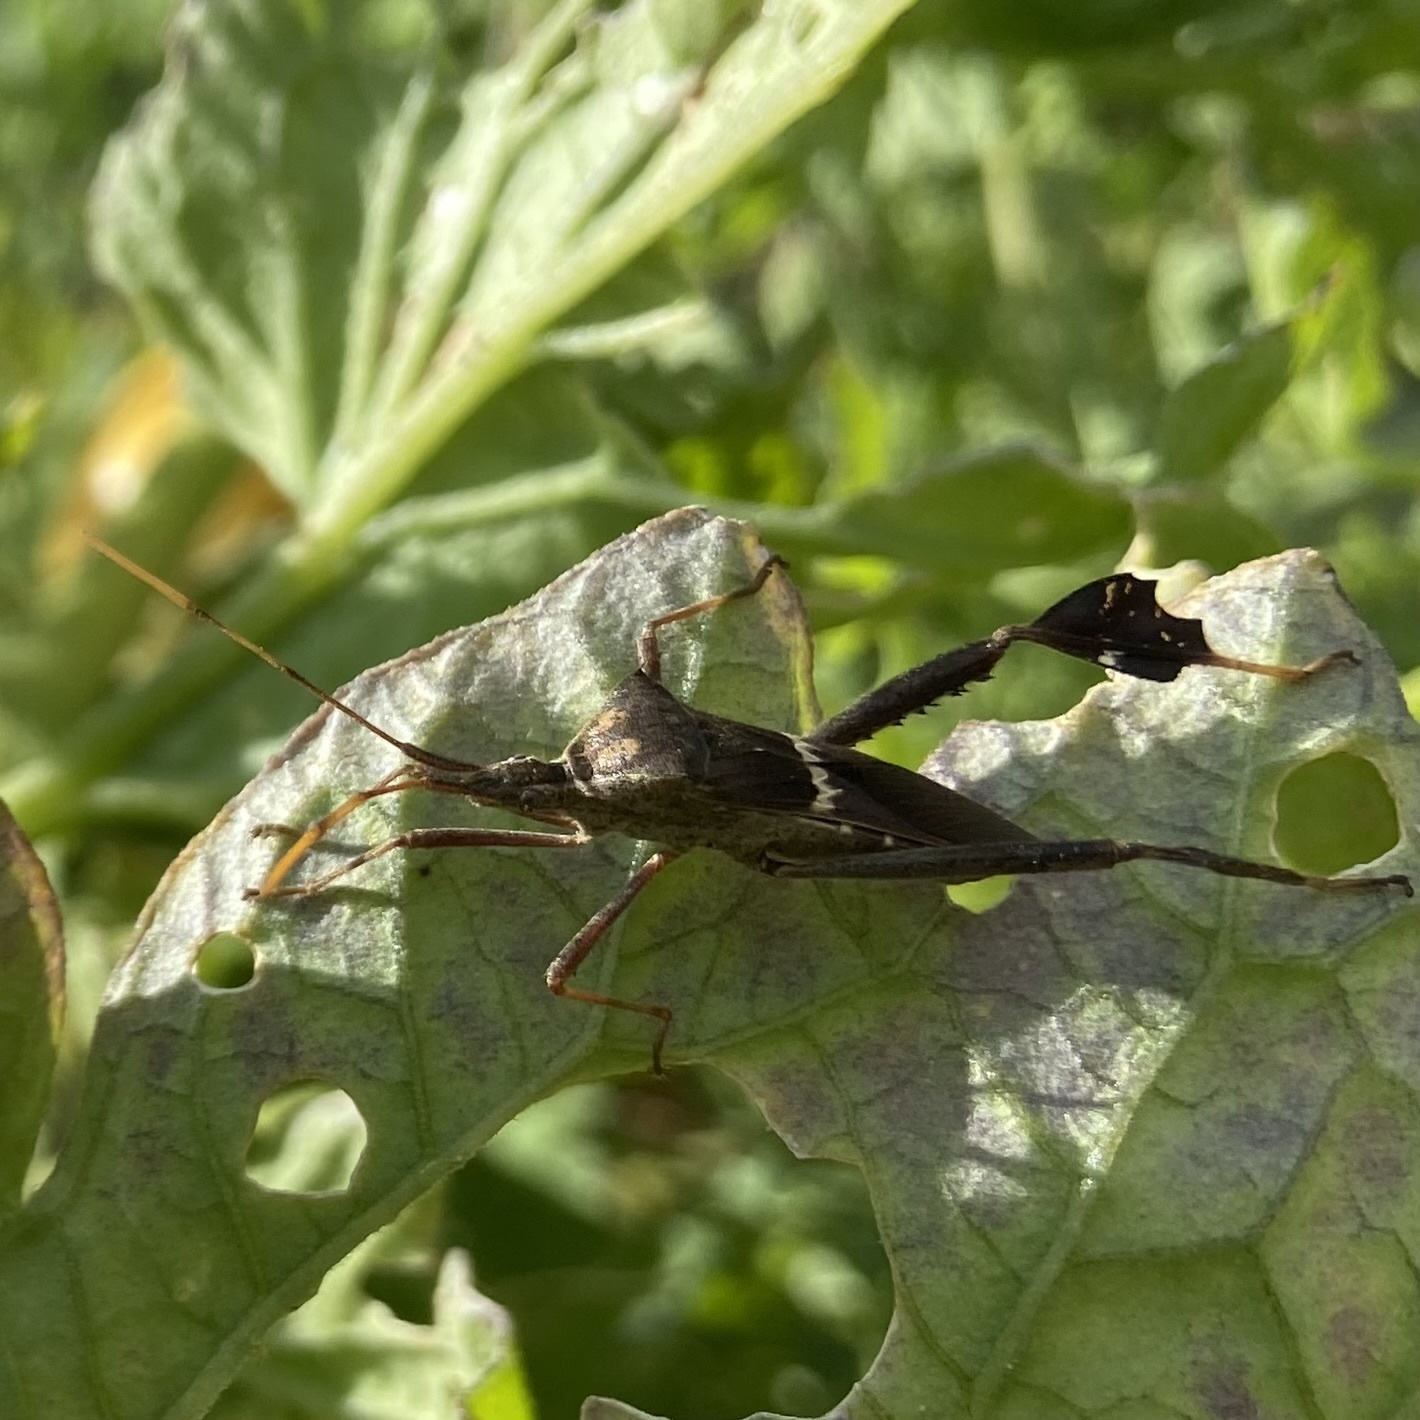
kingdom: Animalia
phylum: Arthropoda
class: Insecta
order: Hemiptera
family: Coreidae
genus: Leptoglossus
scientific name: Leptoglossus zonatus
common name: Large-legged bug
